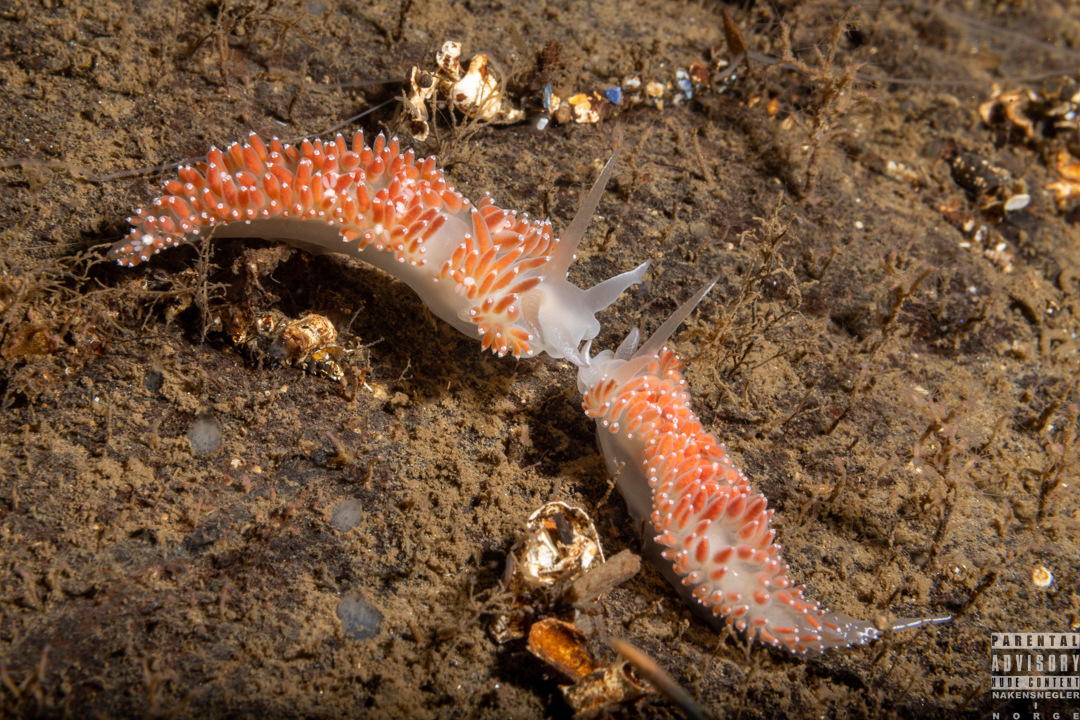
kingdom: Animalia
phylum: Mollusca
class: Gastropoda
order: Nudibranchia
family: Coryphellidae
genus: Coryphella
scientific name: Coryphella verrucosa
